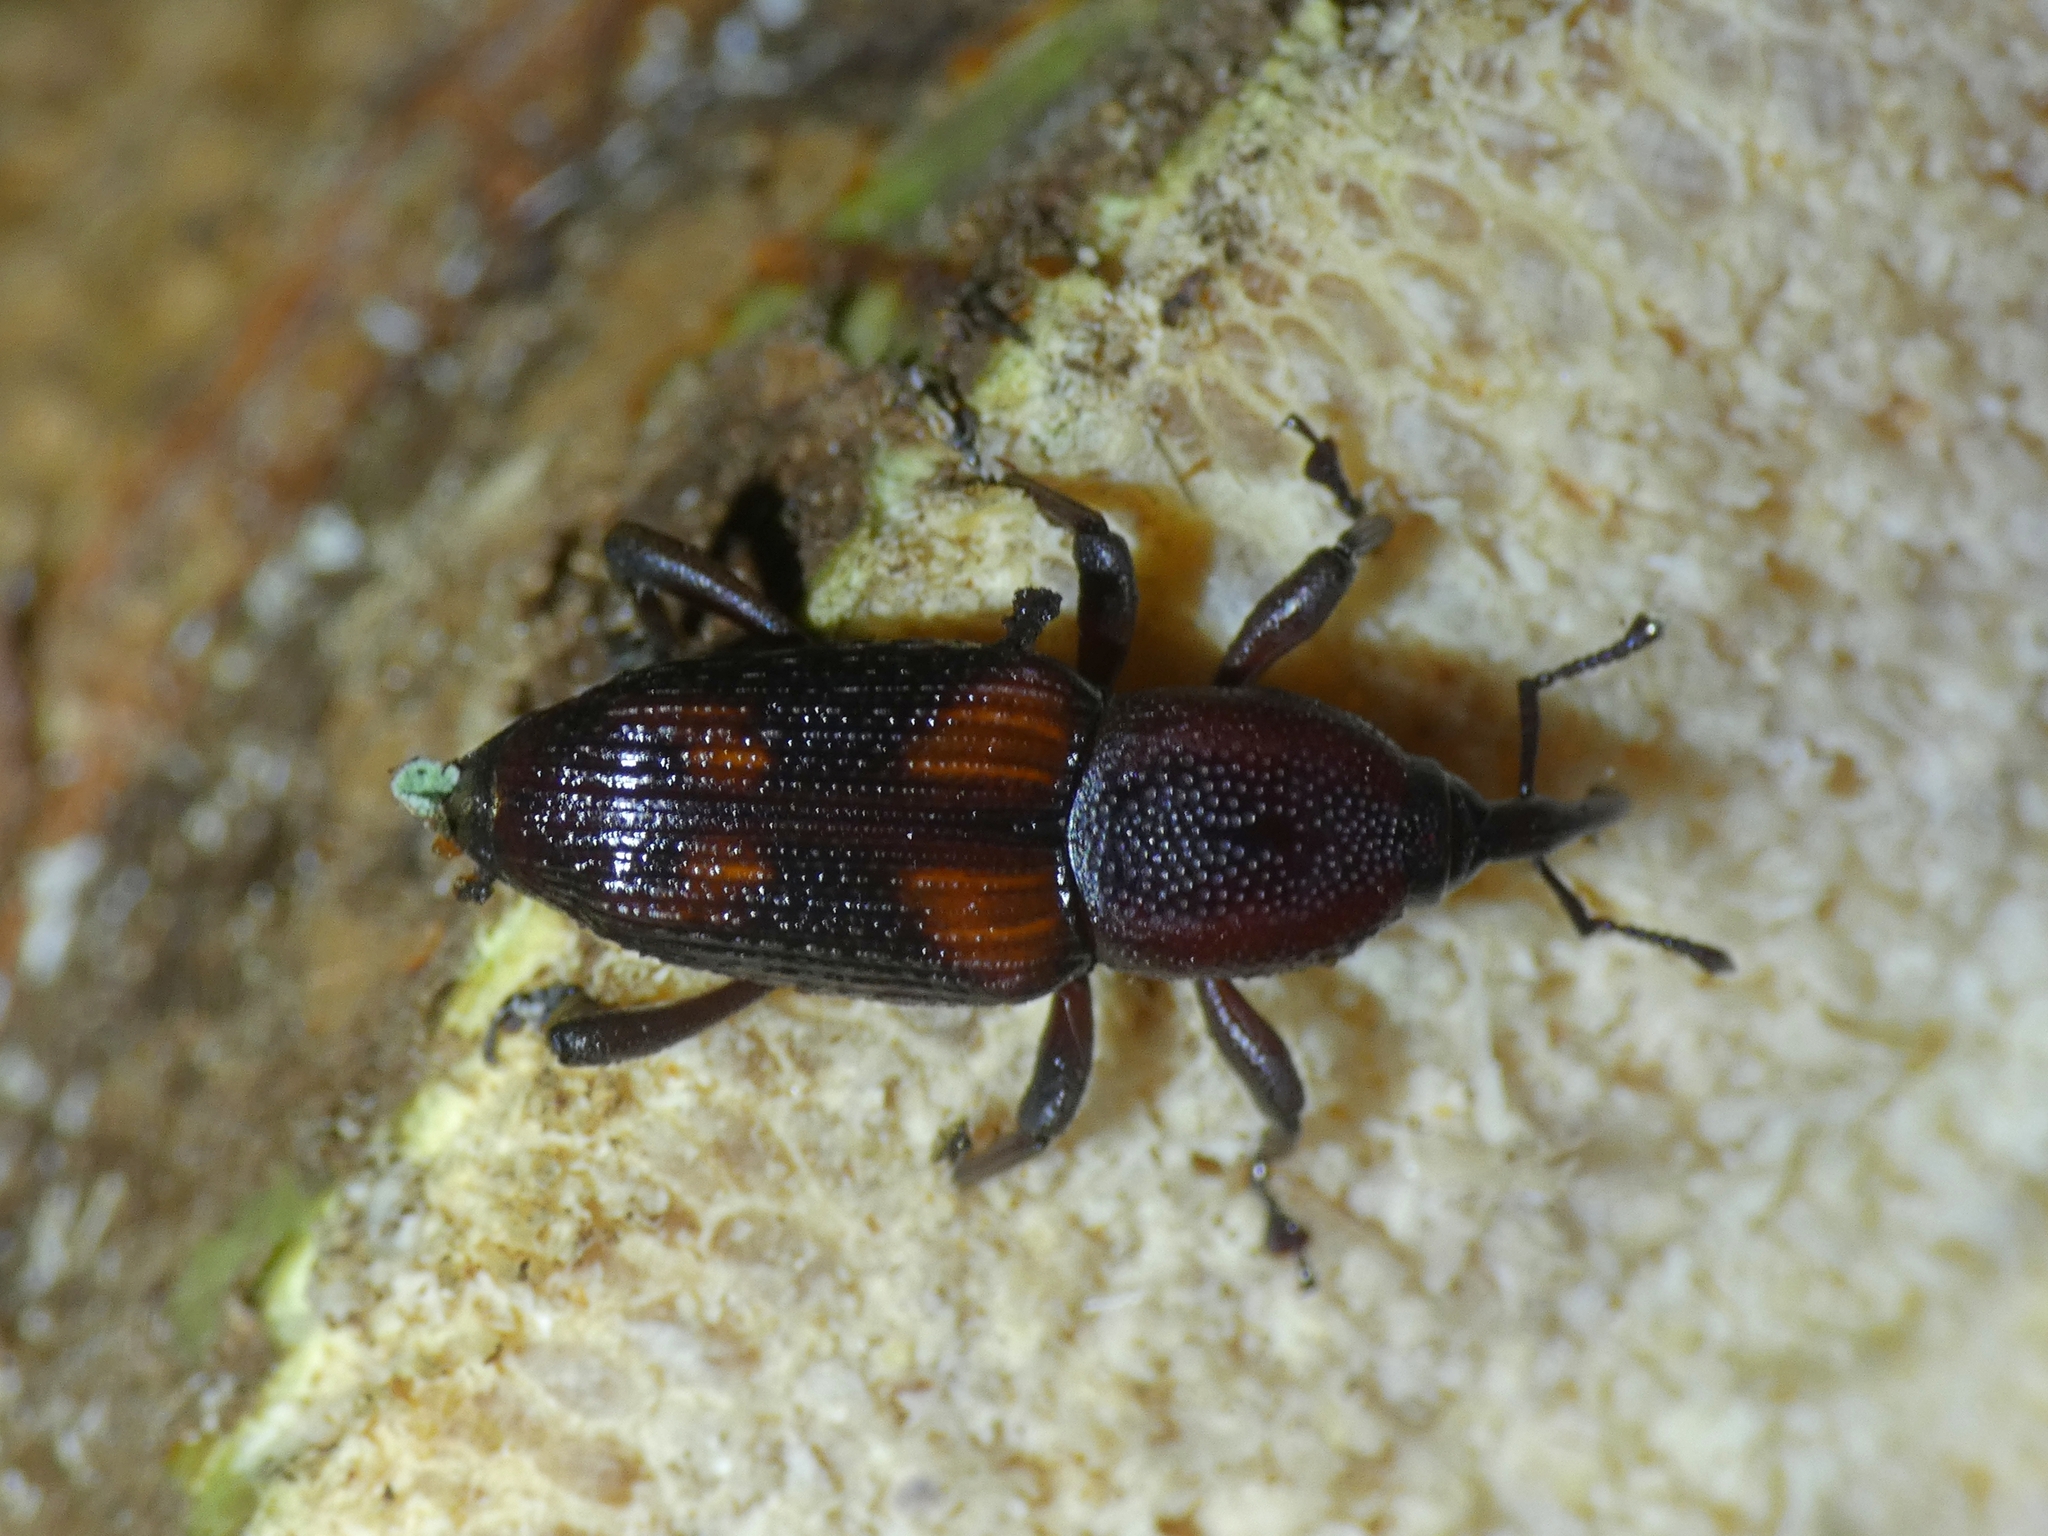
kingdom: Animalia
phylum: Arthropoda
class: Insecta
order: Coleoptera
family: Dryophthoridae
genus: Rhabdoscelus
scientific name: Rhabdoscelus obscurus
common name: Cane weevil borer
